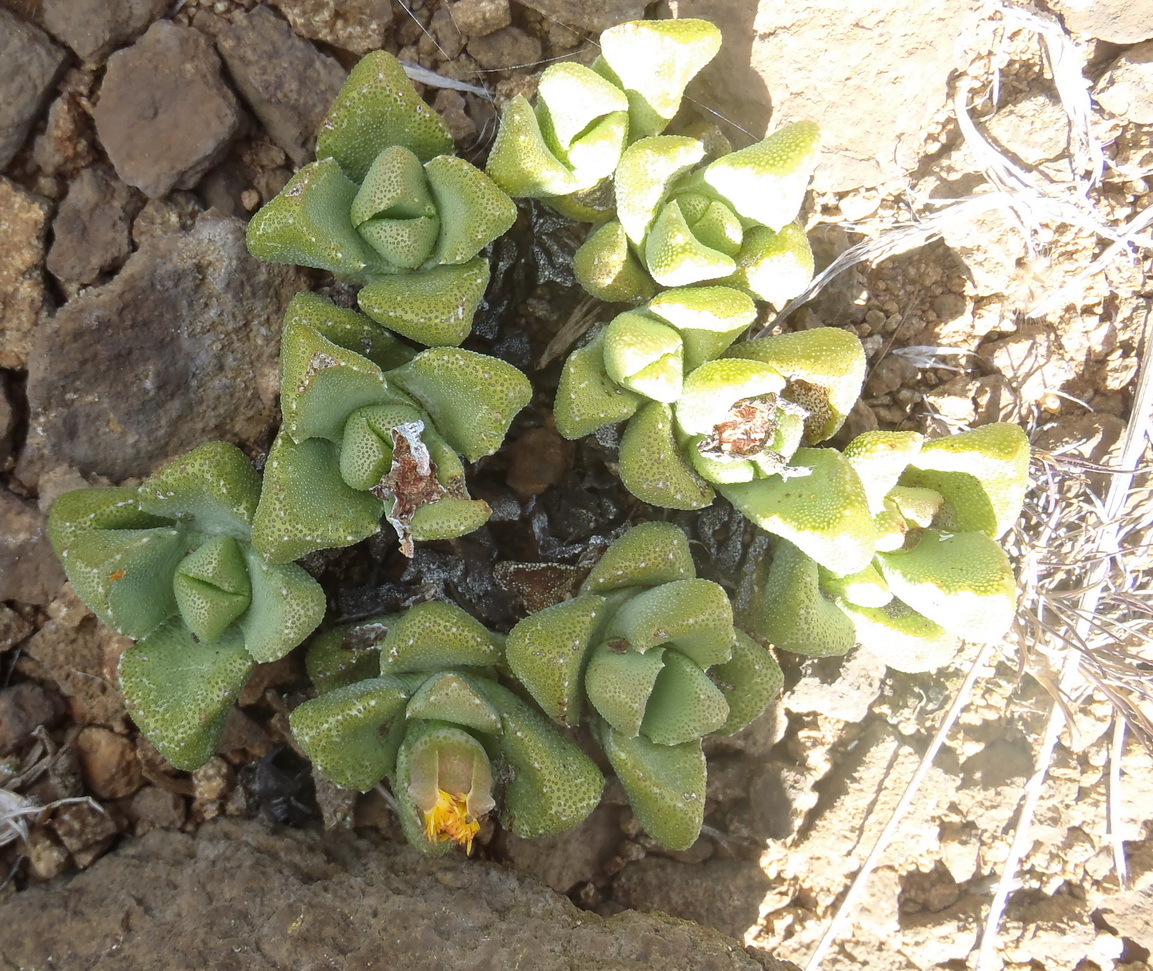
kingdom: Plantae
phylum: Tracheophyta
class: Magnoliopsida
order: Caryophyllales
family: Aizoaceae
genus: Stomatium
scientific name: Stomatium bolusiae
